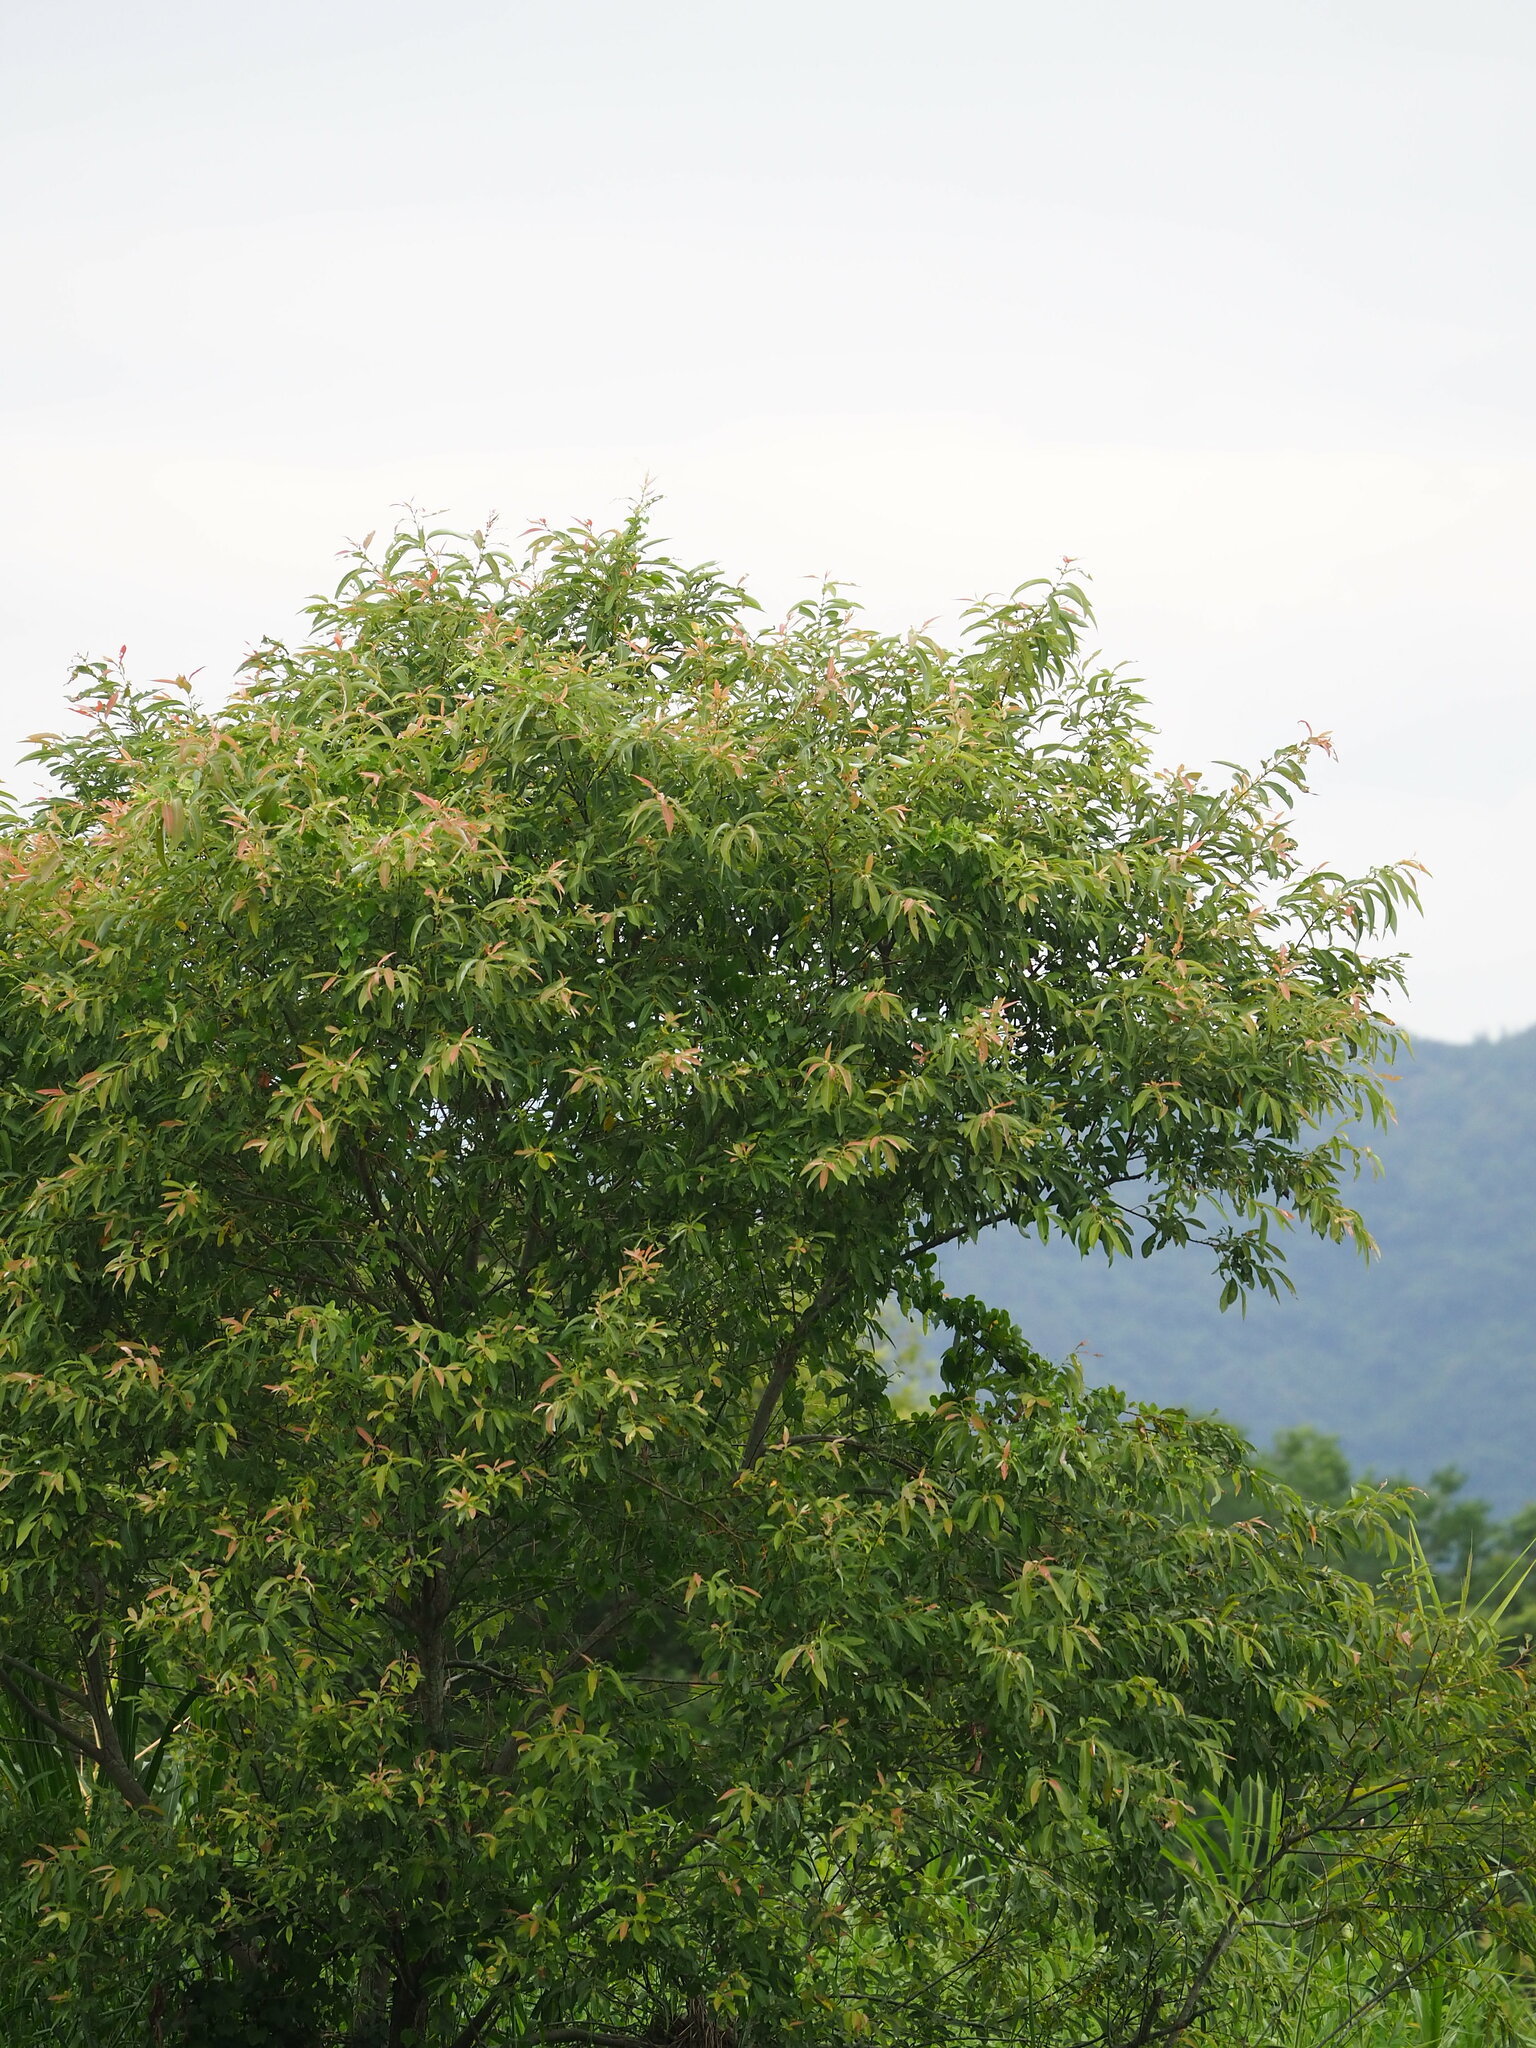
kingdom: Plantae
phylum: Tracheophyta
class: Magnoliopsida
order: Malpighiales
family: Salicaceae
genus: Salix
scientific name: Salix mesnyi
